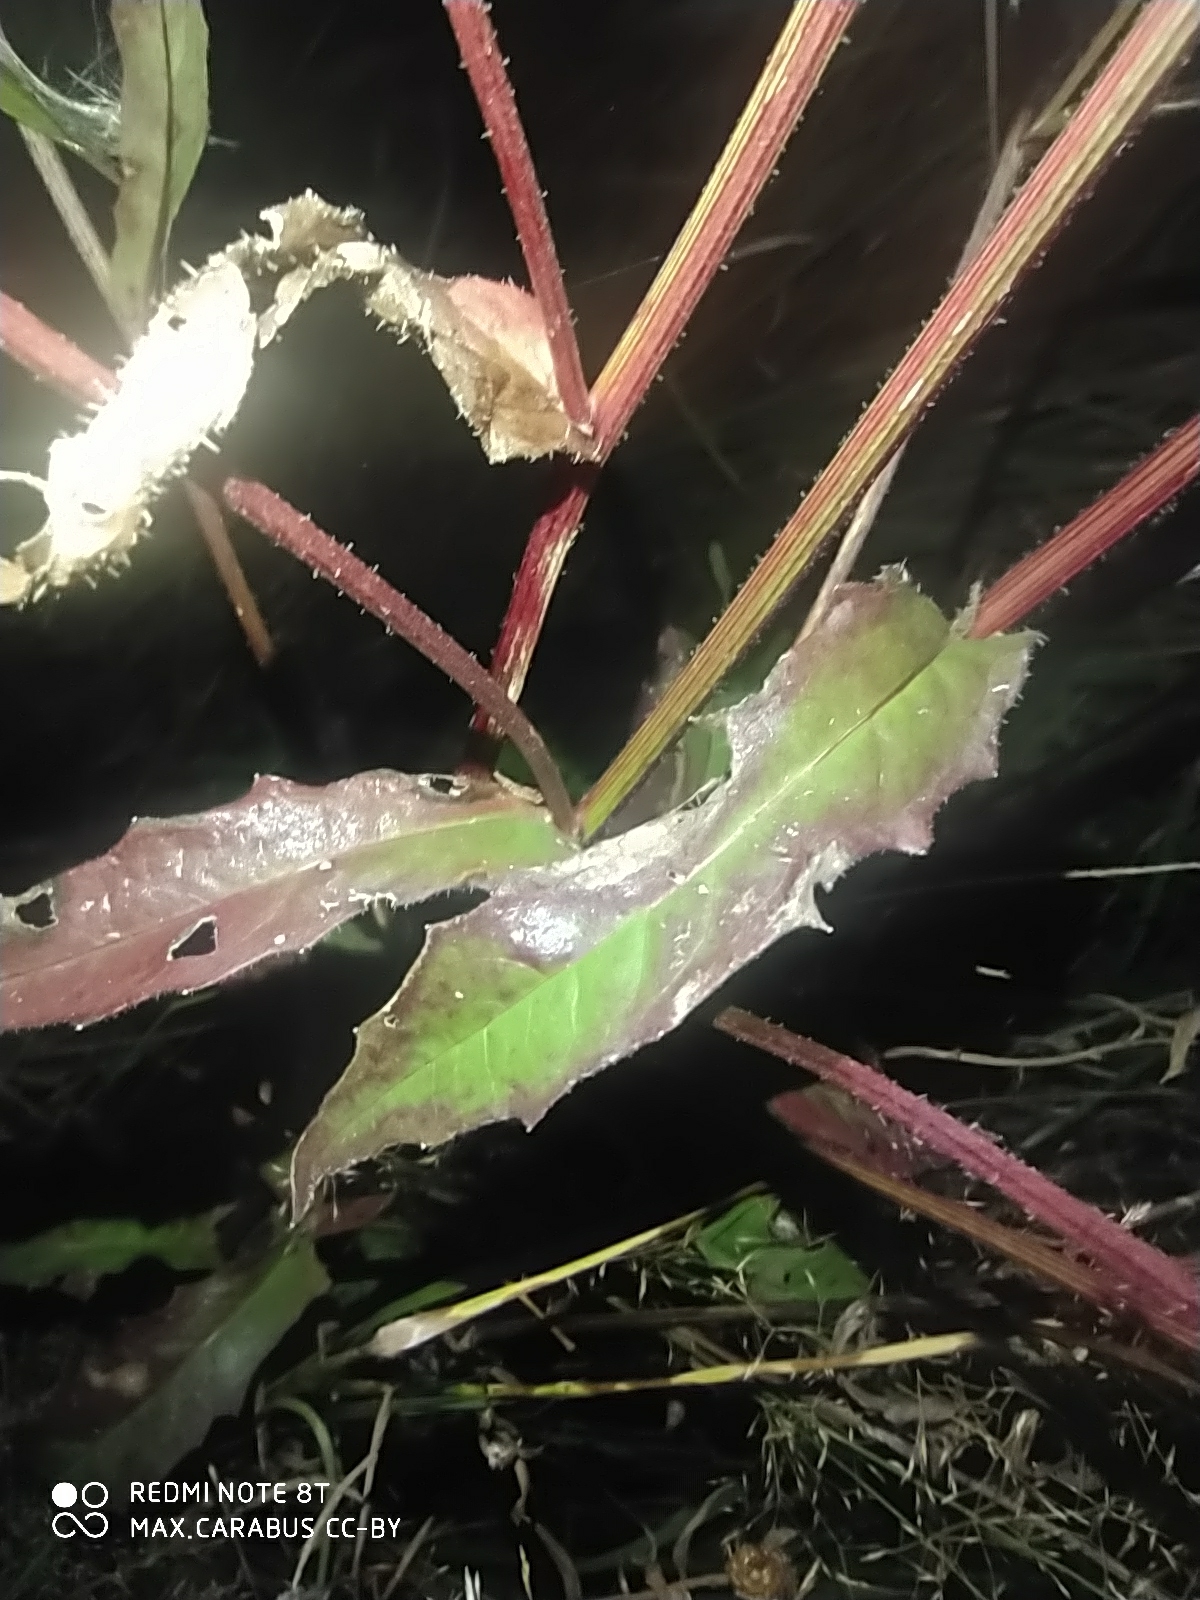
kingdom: Plantae
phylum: Tracheophyta
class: Magnoliopsida
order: Asterales
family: Asteraceae
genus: Picris
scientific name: Picris hieracioides
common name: Hawkweed oxtongue
